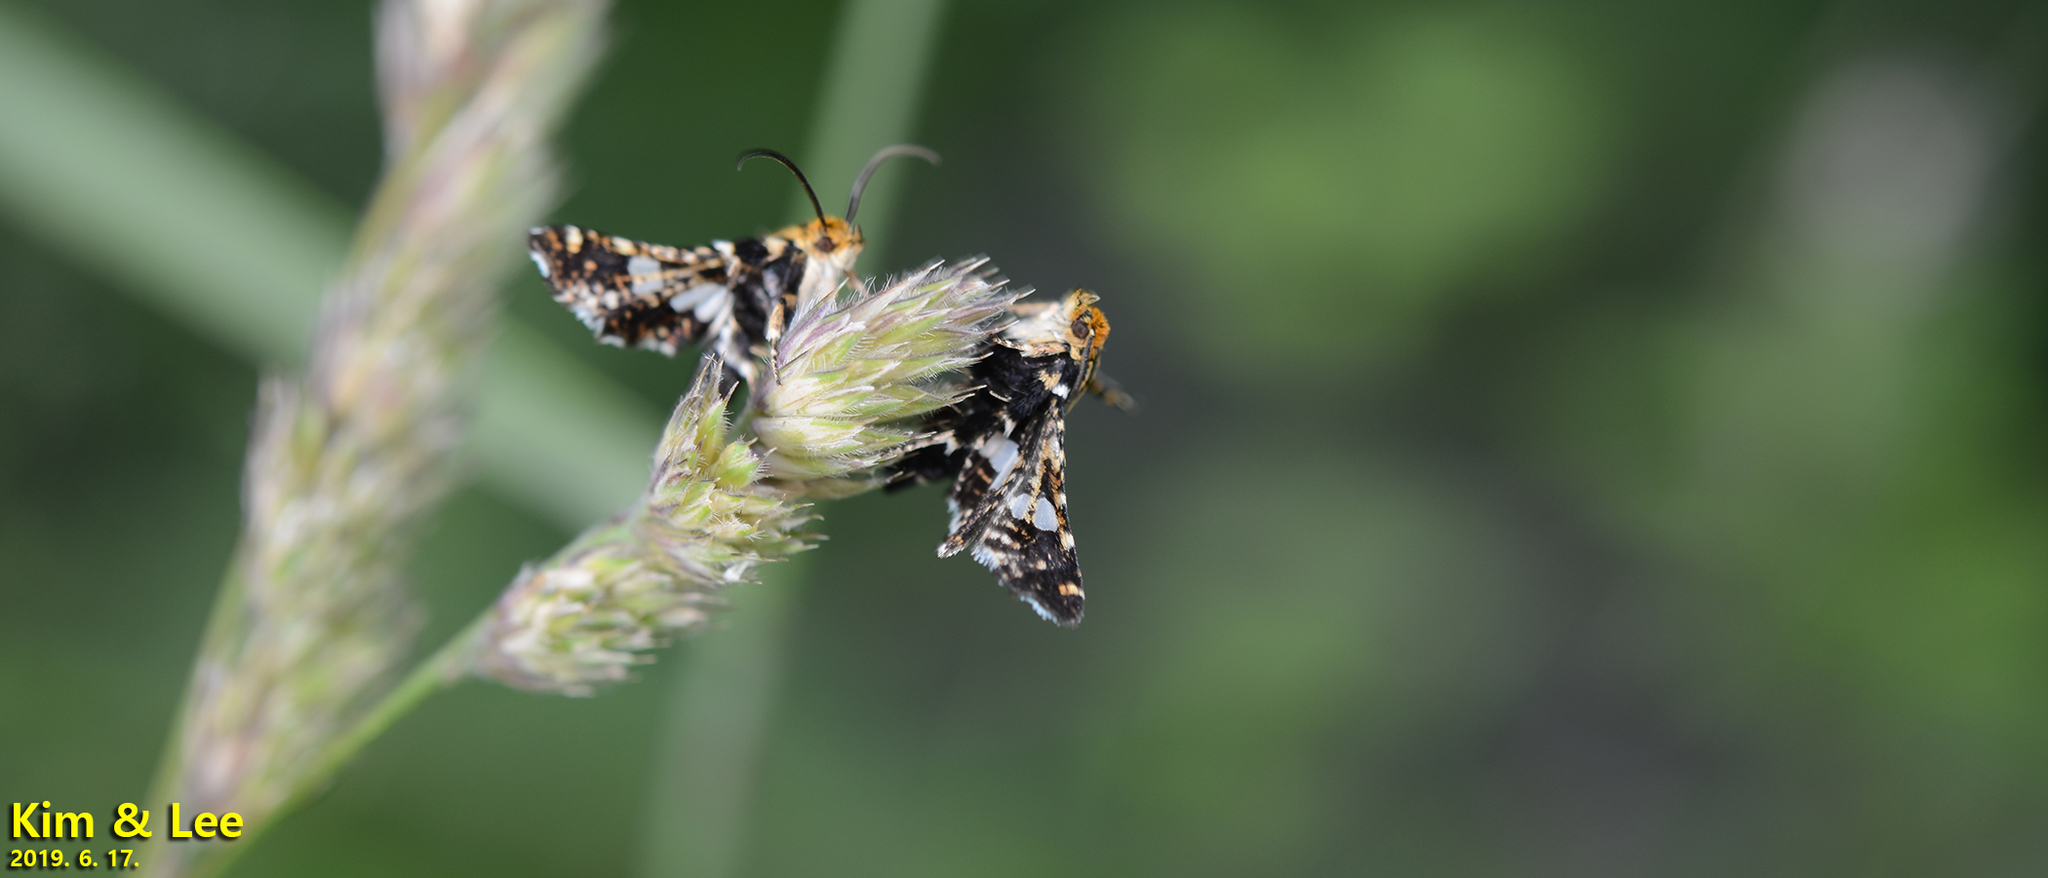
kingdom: Animalia
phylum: Arthropoda
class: Insecta
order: Lepidoptera
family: Thyrididae
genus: Thyris
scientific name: Thyris fenestrella
